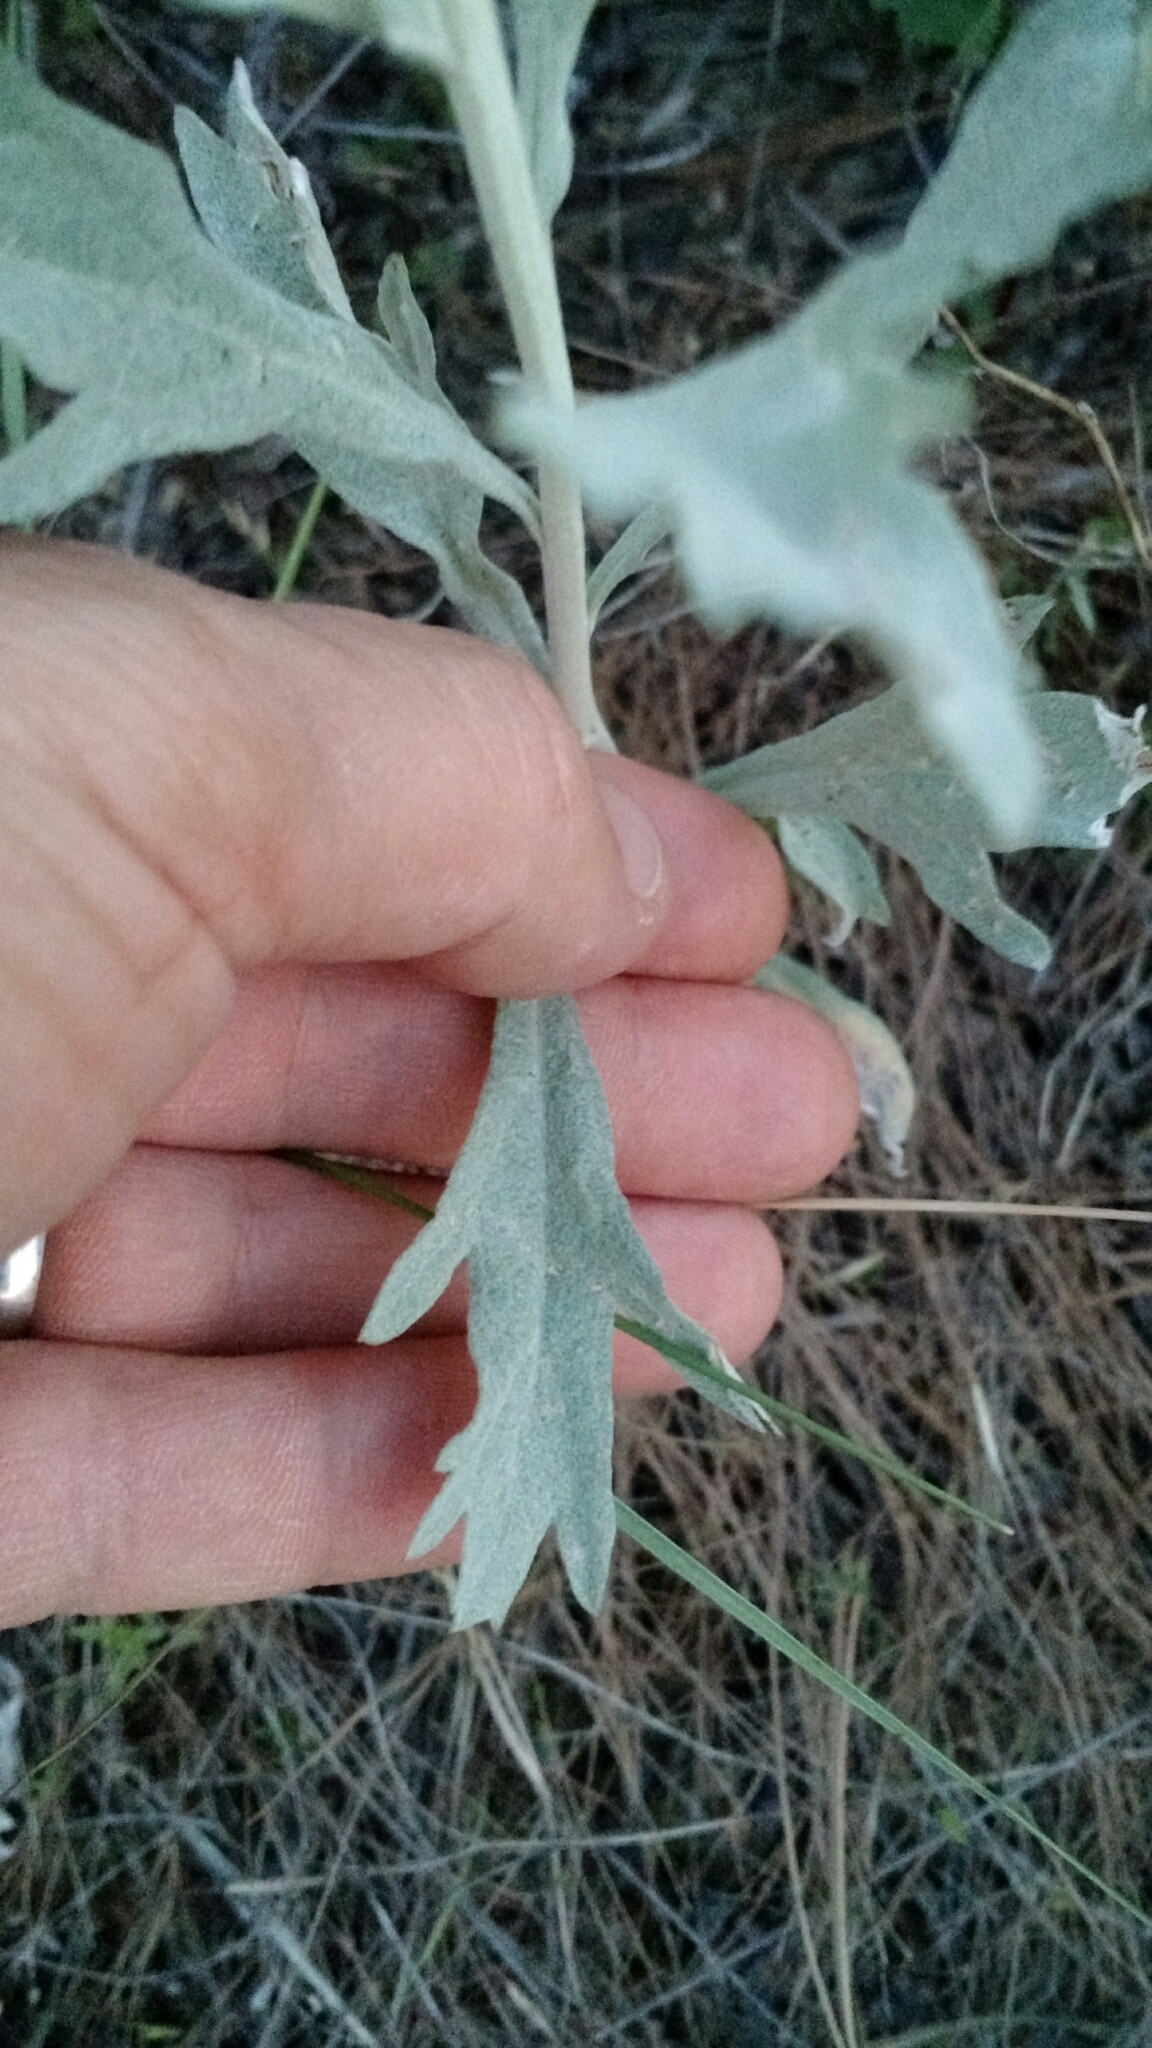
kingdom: Plantae
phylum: Tracheophyta
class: Magnoliopsida
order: Asterales
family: Asteraceae
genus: Artemisia
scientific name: Artemisia ludoviciana
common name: Western mugwort
